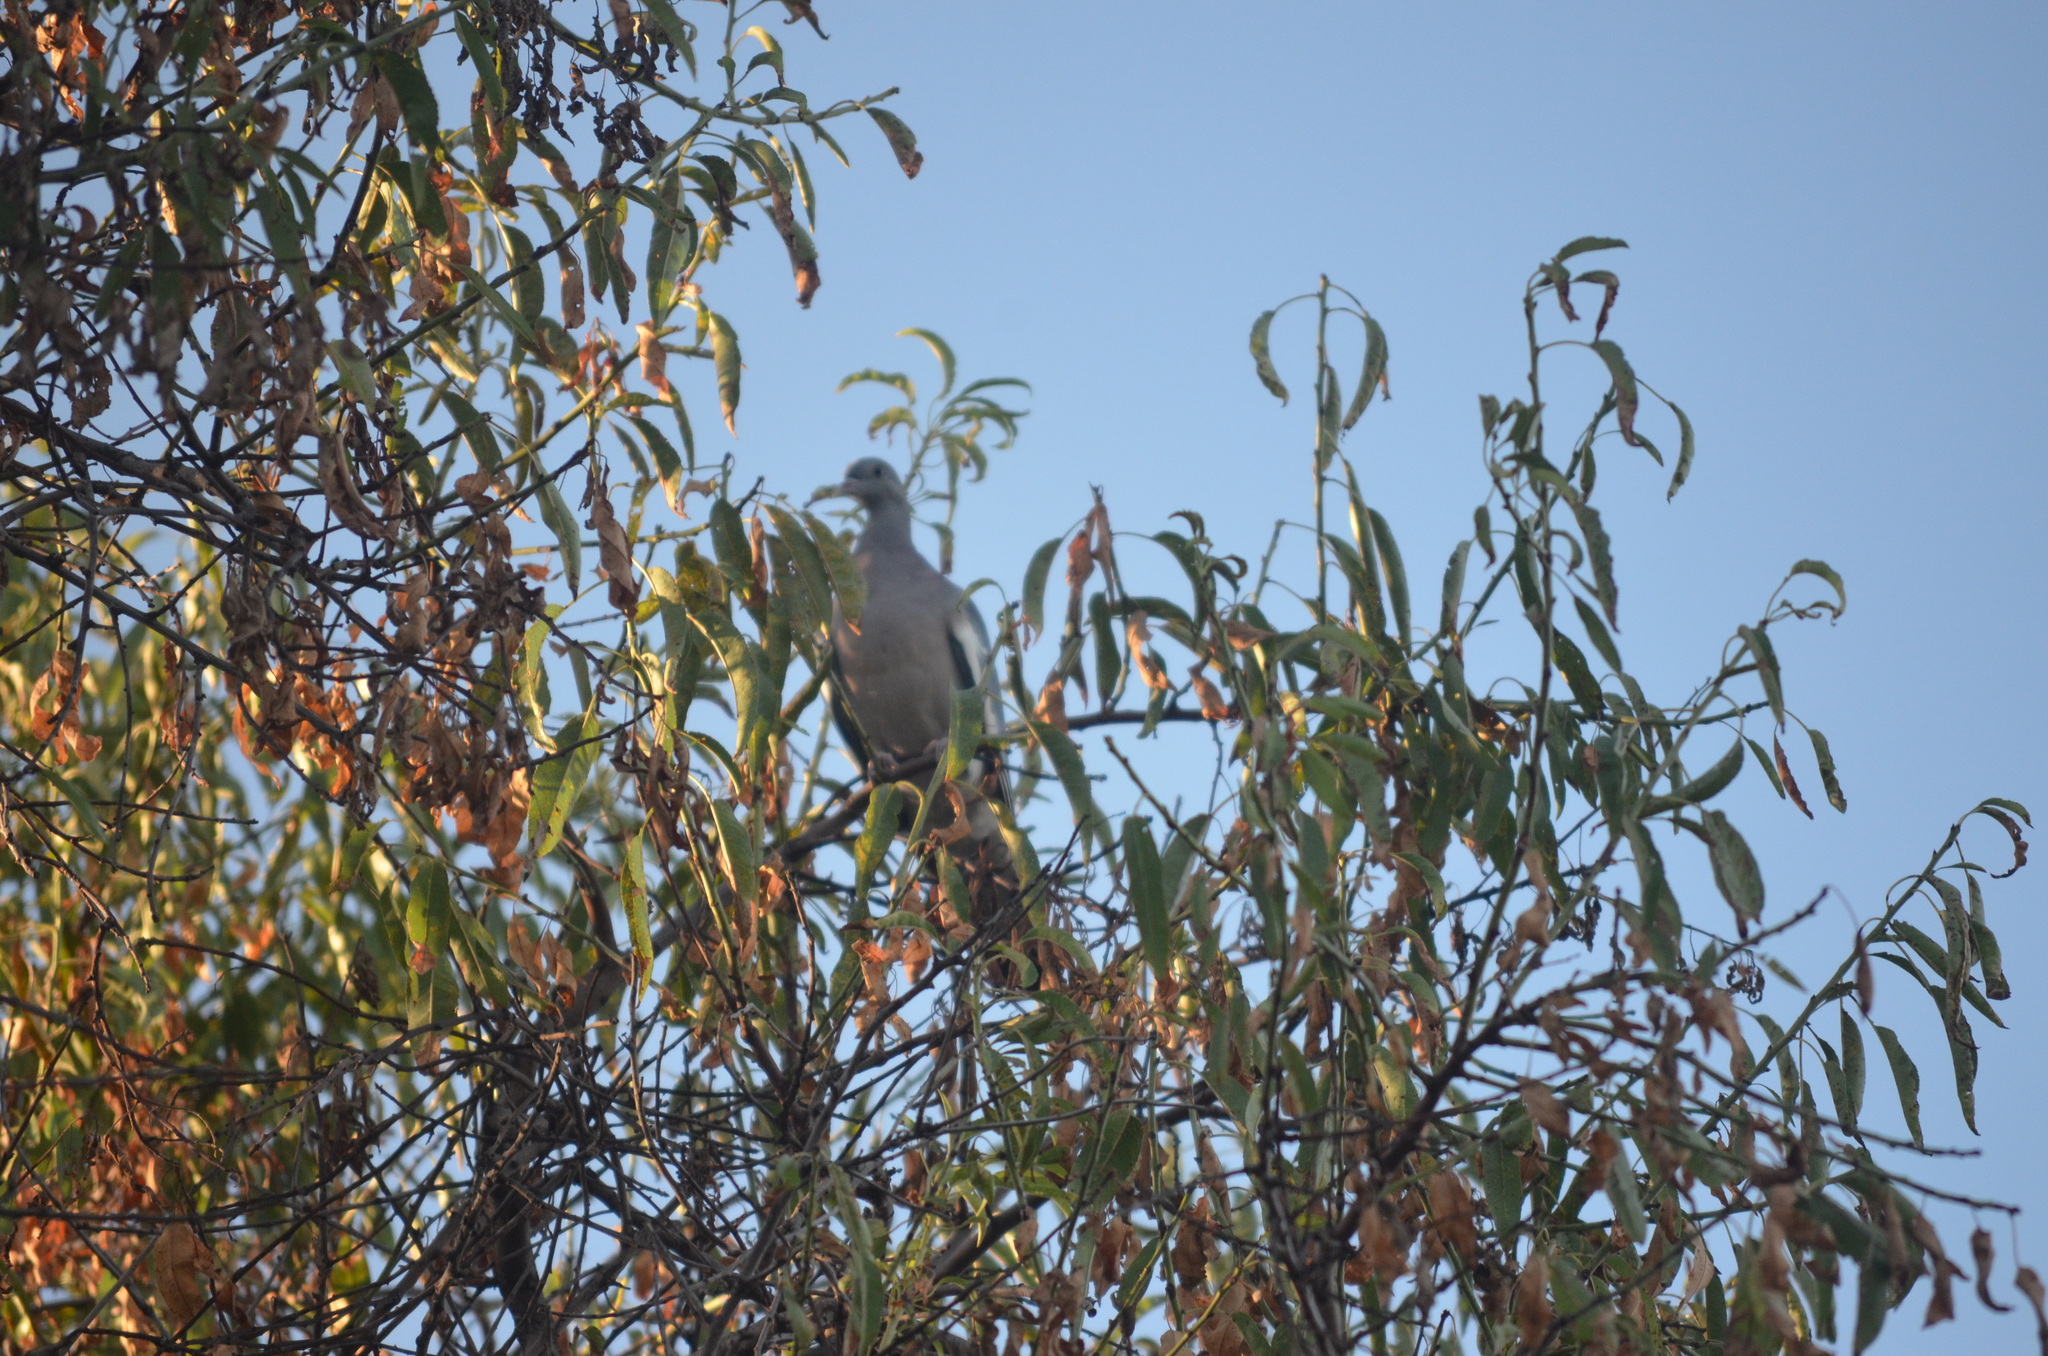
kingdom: Animalia
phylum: Chordata
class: Aves
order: Columbiformes
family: Columbidae
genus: Columba
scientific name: Columba palumbus
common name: Common wood pigeon
